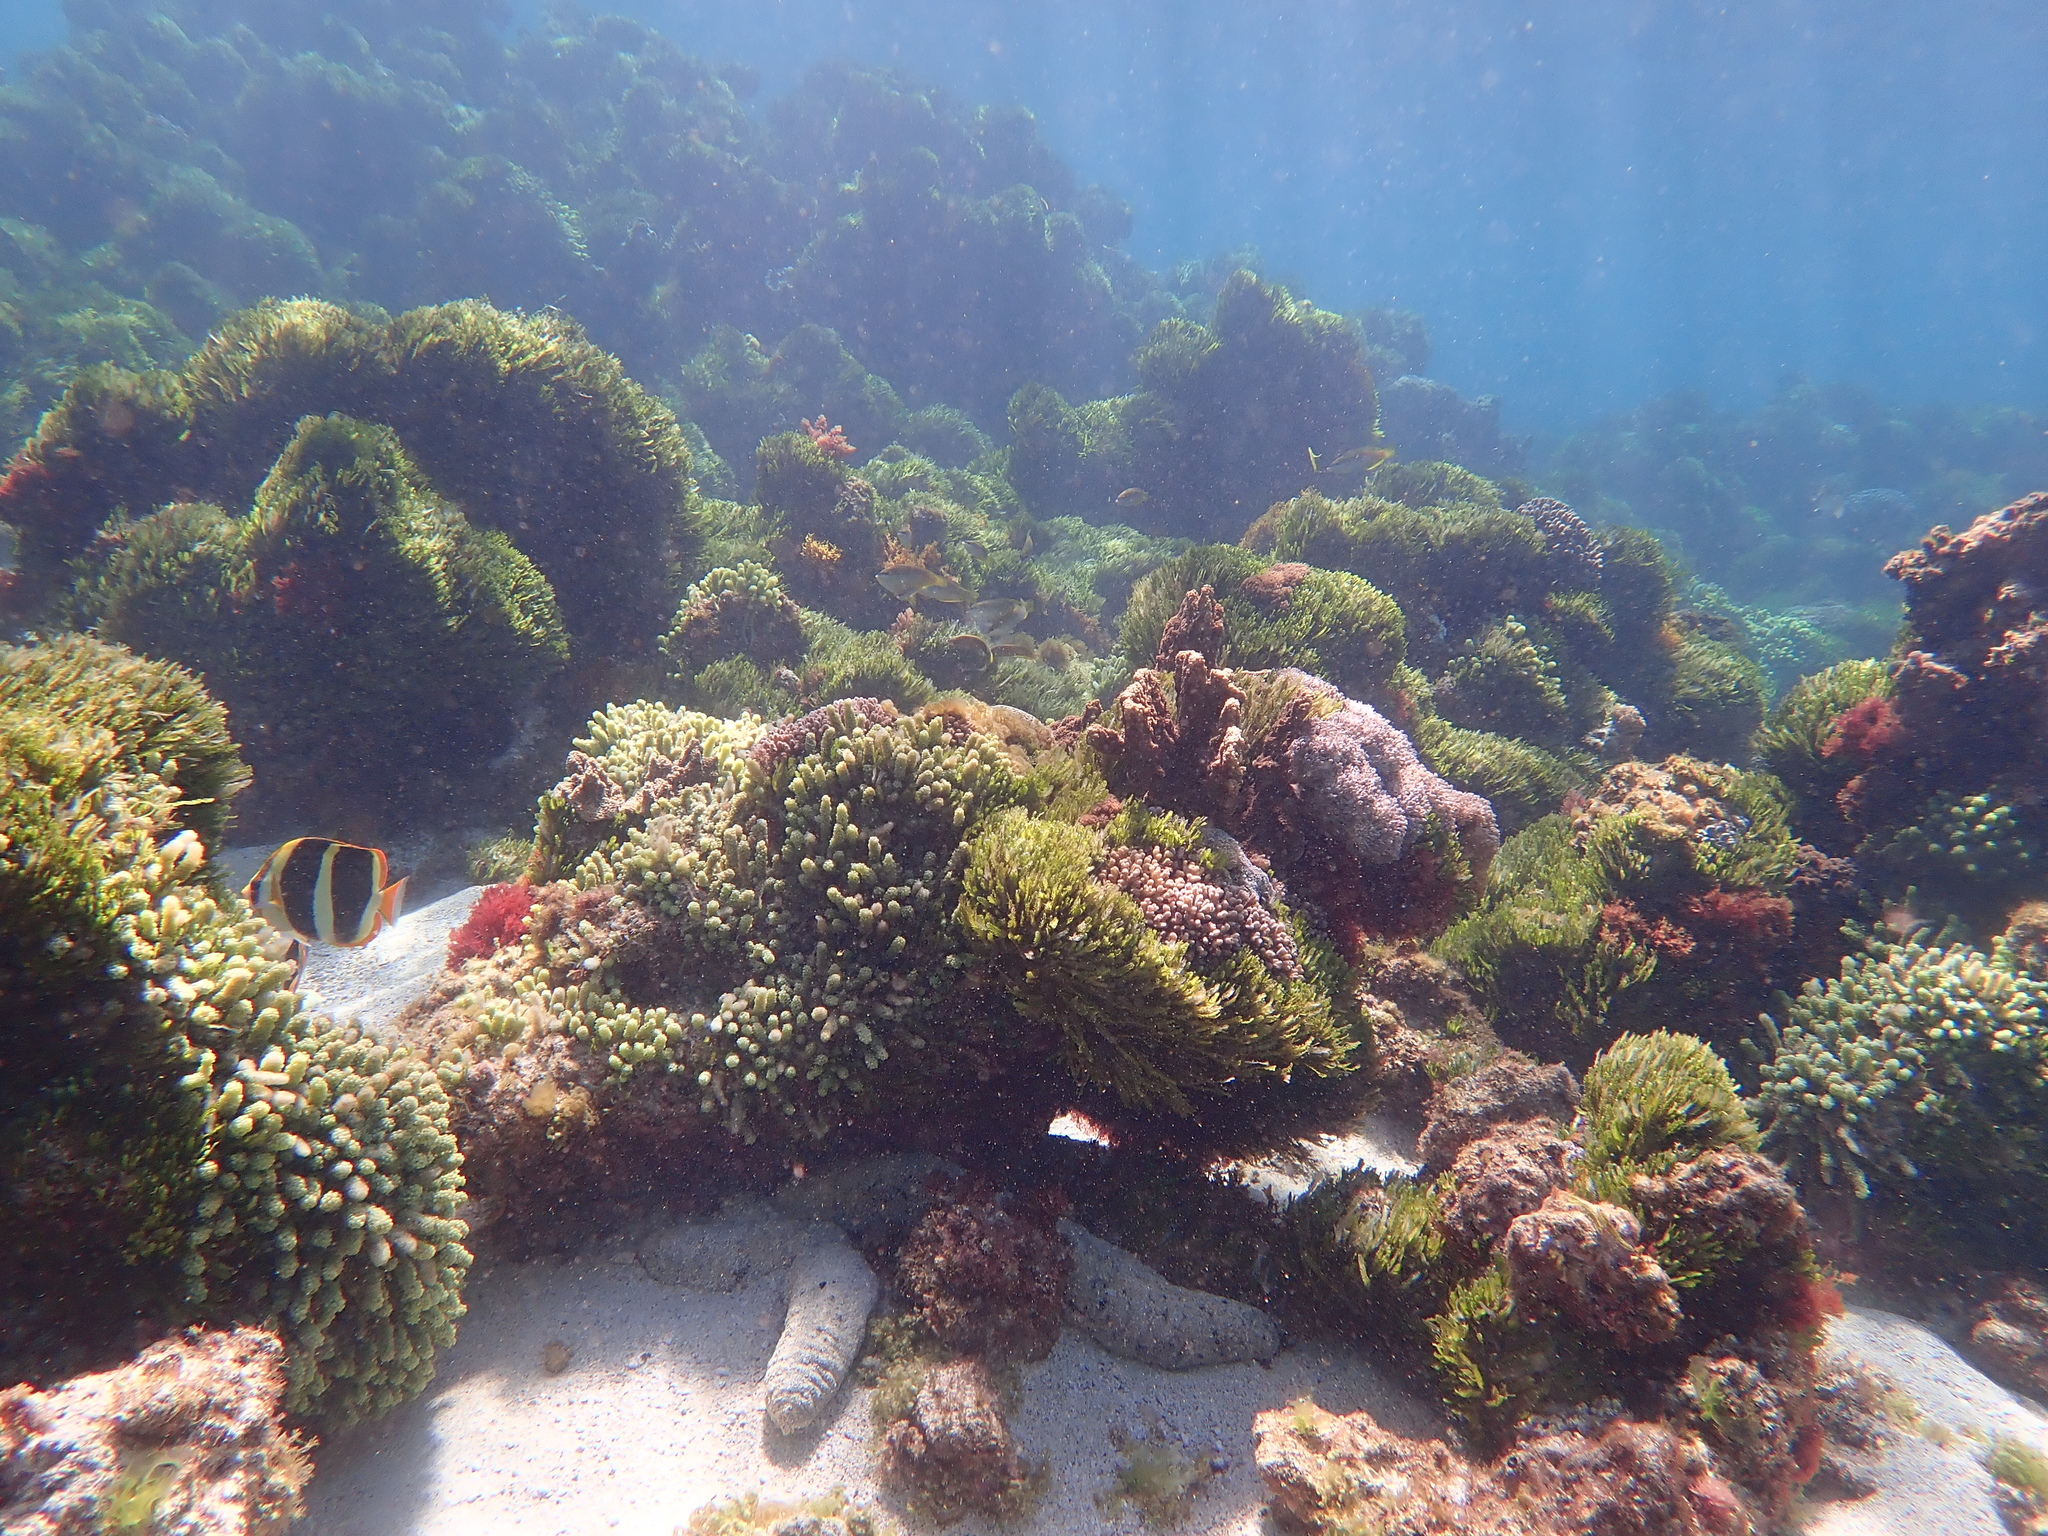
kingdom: Animalia
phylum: Chordata
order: Perciformes
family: Chaetodontidae
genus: Chaetodon
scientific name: Chaetodon tricinctus
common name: Three-striped butterflyfish
